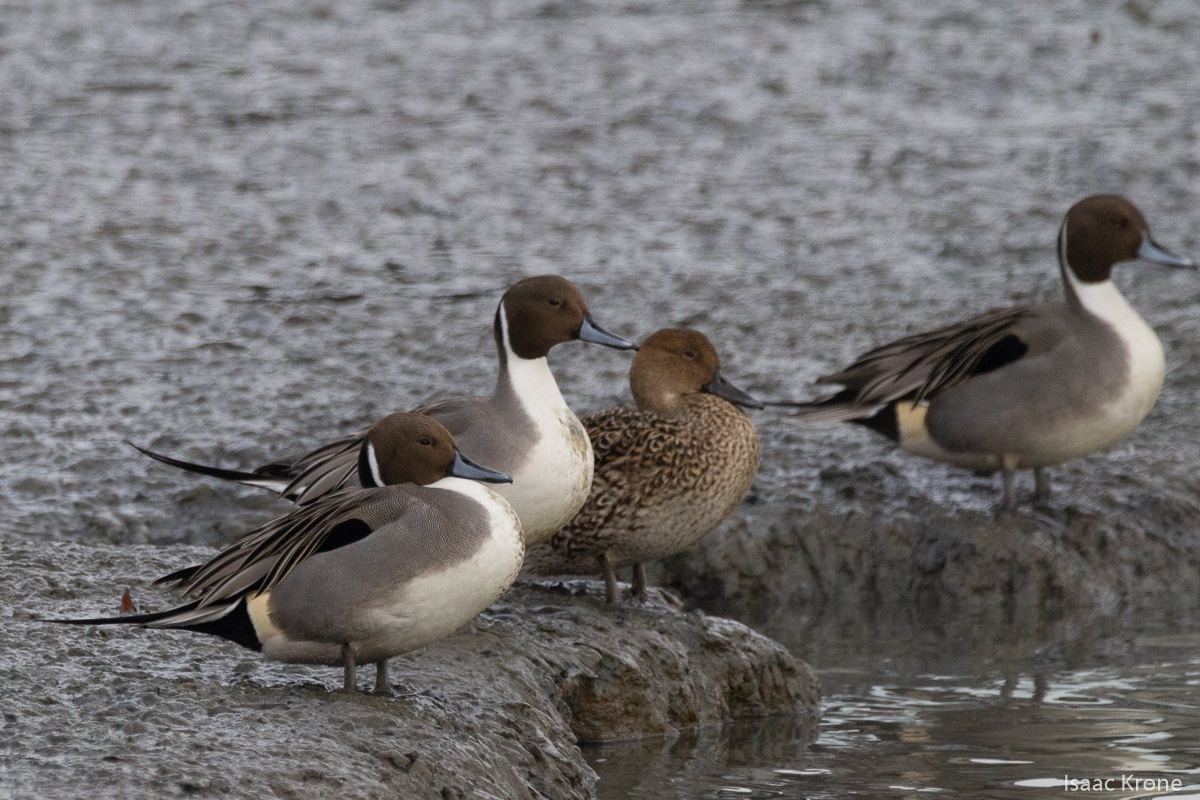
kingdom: Animalia
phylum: Chordata
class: Aves
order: Anseriformes
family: Anatidae
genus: Anas
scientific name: Anas acuta
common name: Northern pintail
